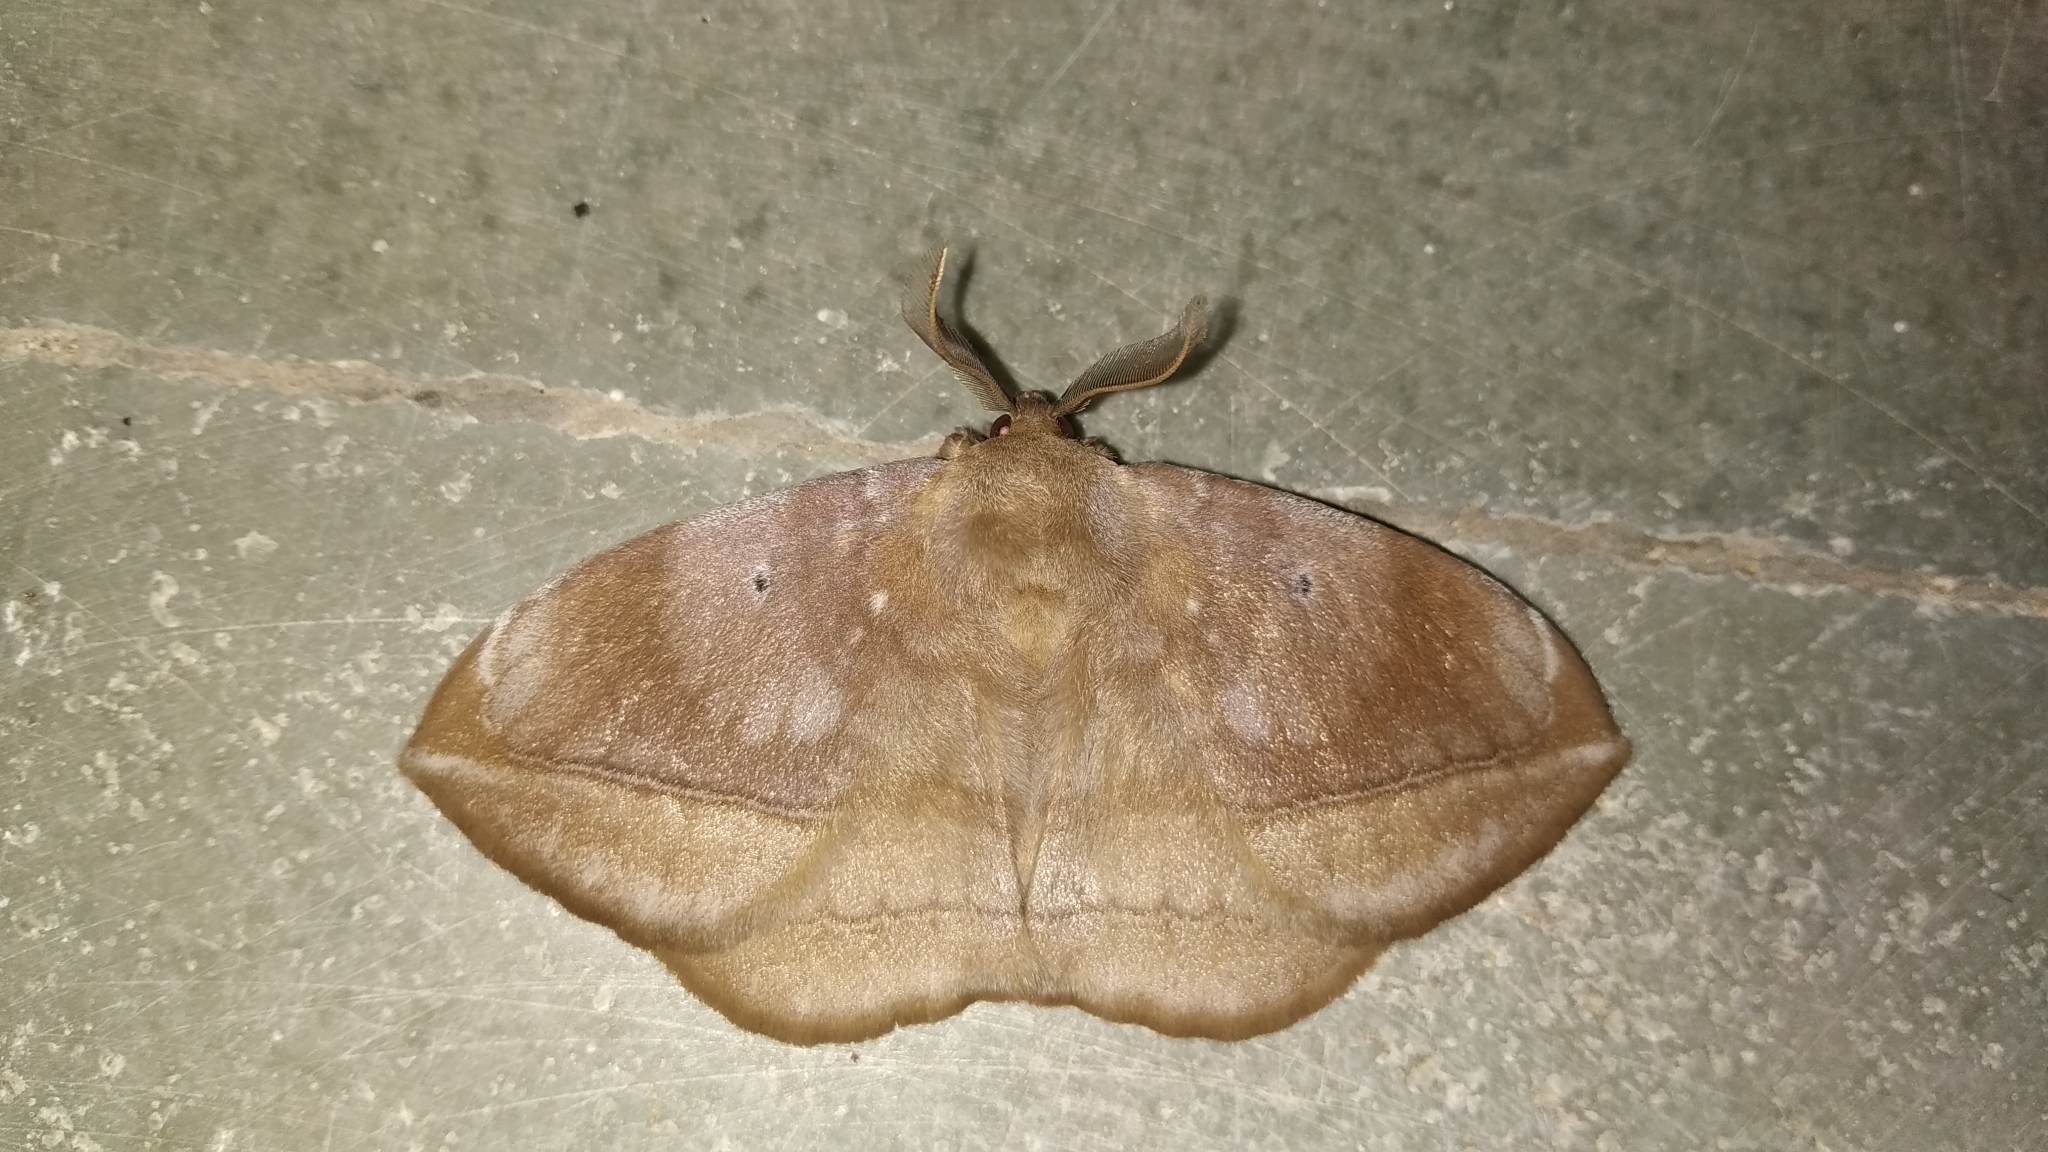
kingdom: Animalia
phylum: Arthropoda
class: Insecta
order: Lepidoptera
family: Eupterotidae
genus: Ganisa
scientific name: Ganisa postica
